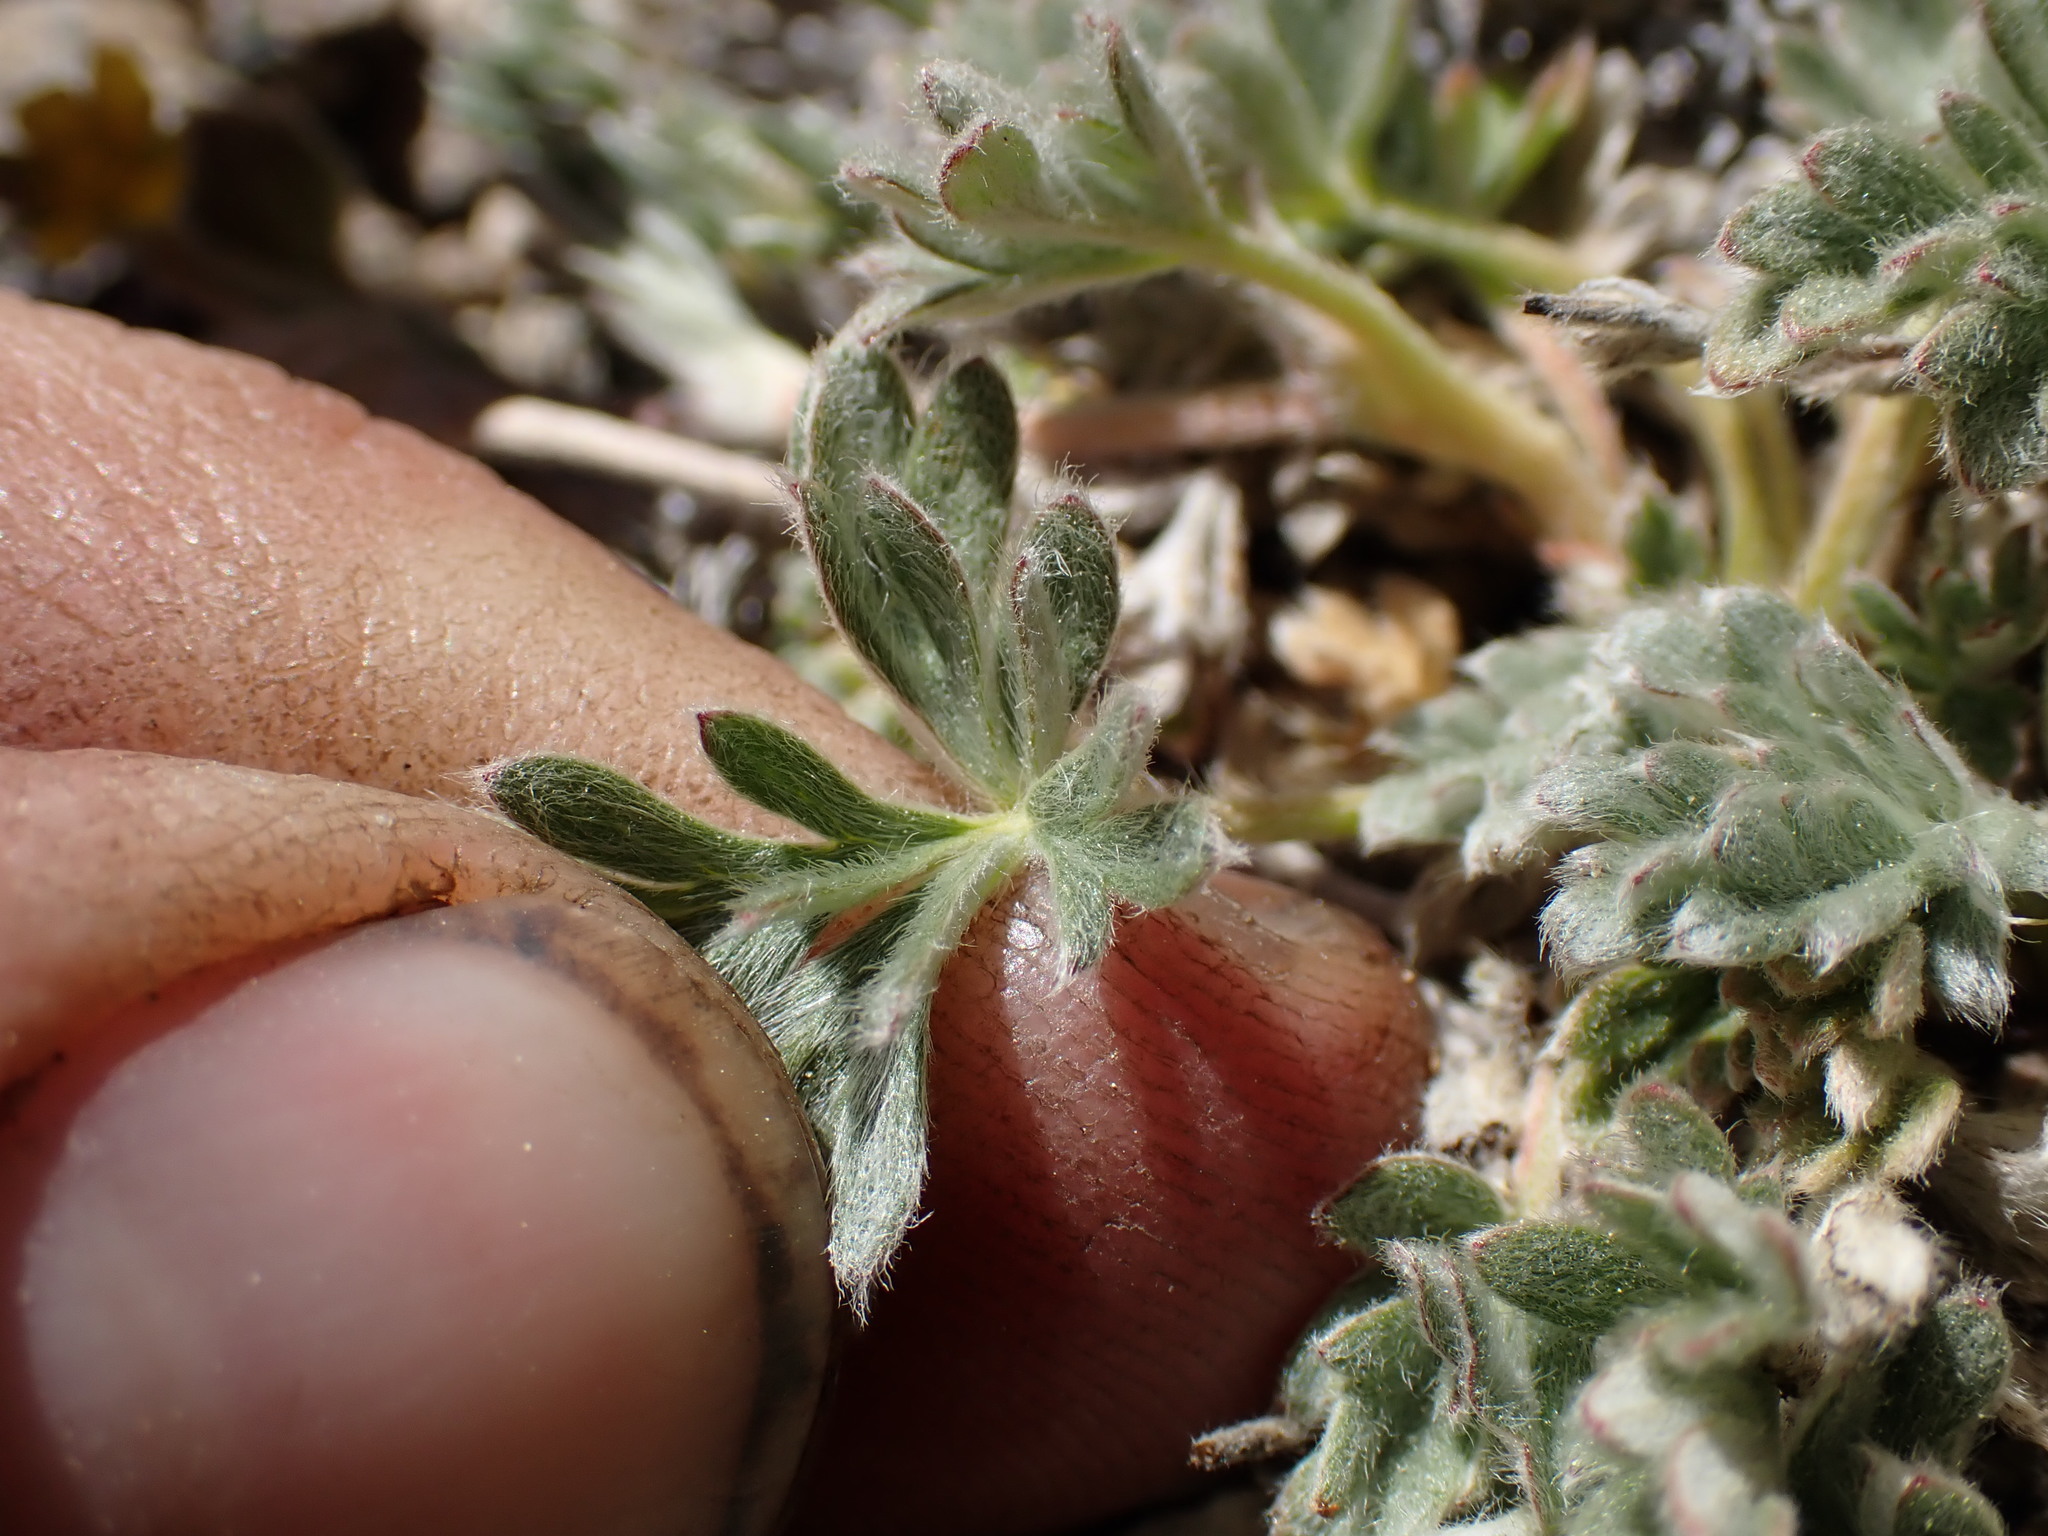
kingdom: Plantae
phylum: Tracheophyta
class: Magnoliopsida
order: Rosales
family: Rosaceae
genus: Potentilla
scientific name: Potentilla pseudosericea
